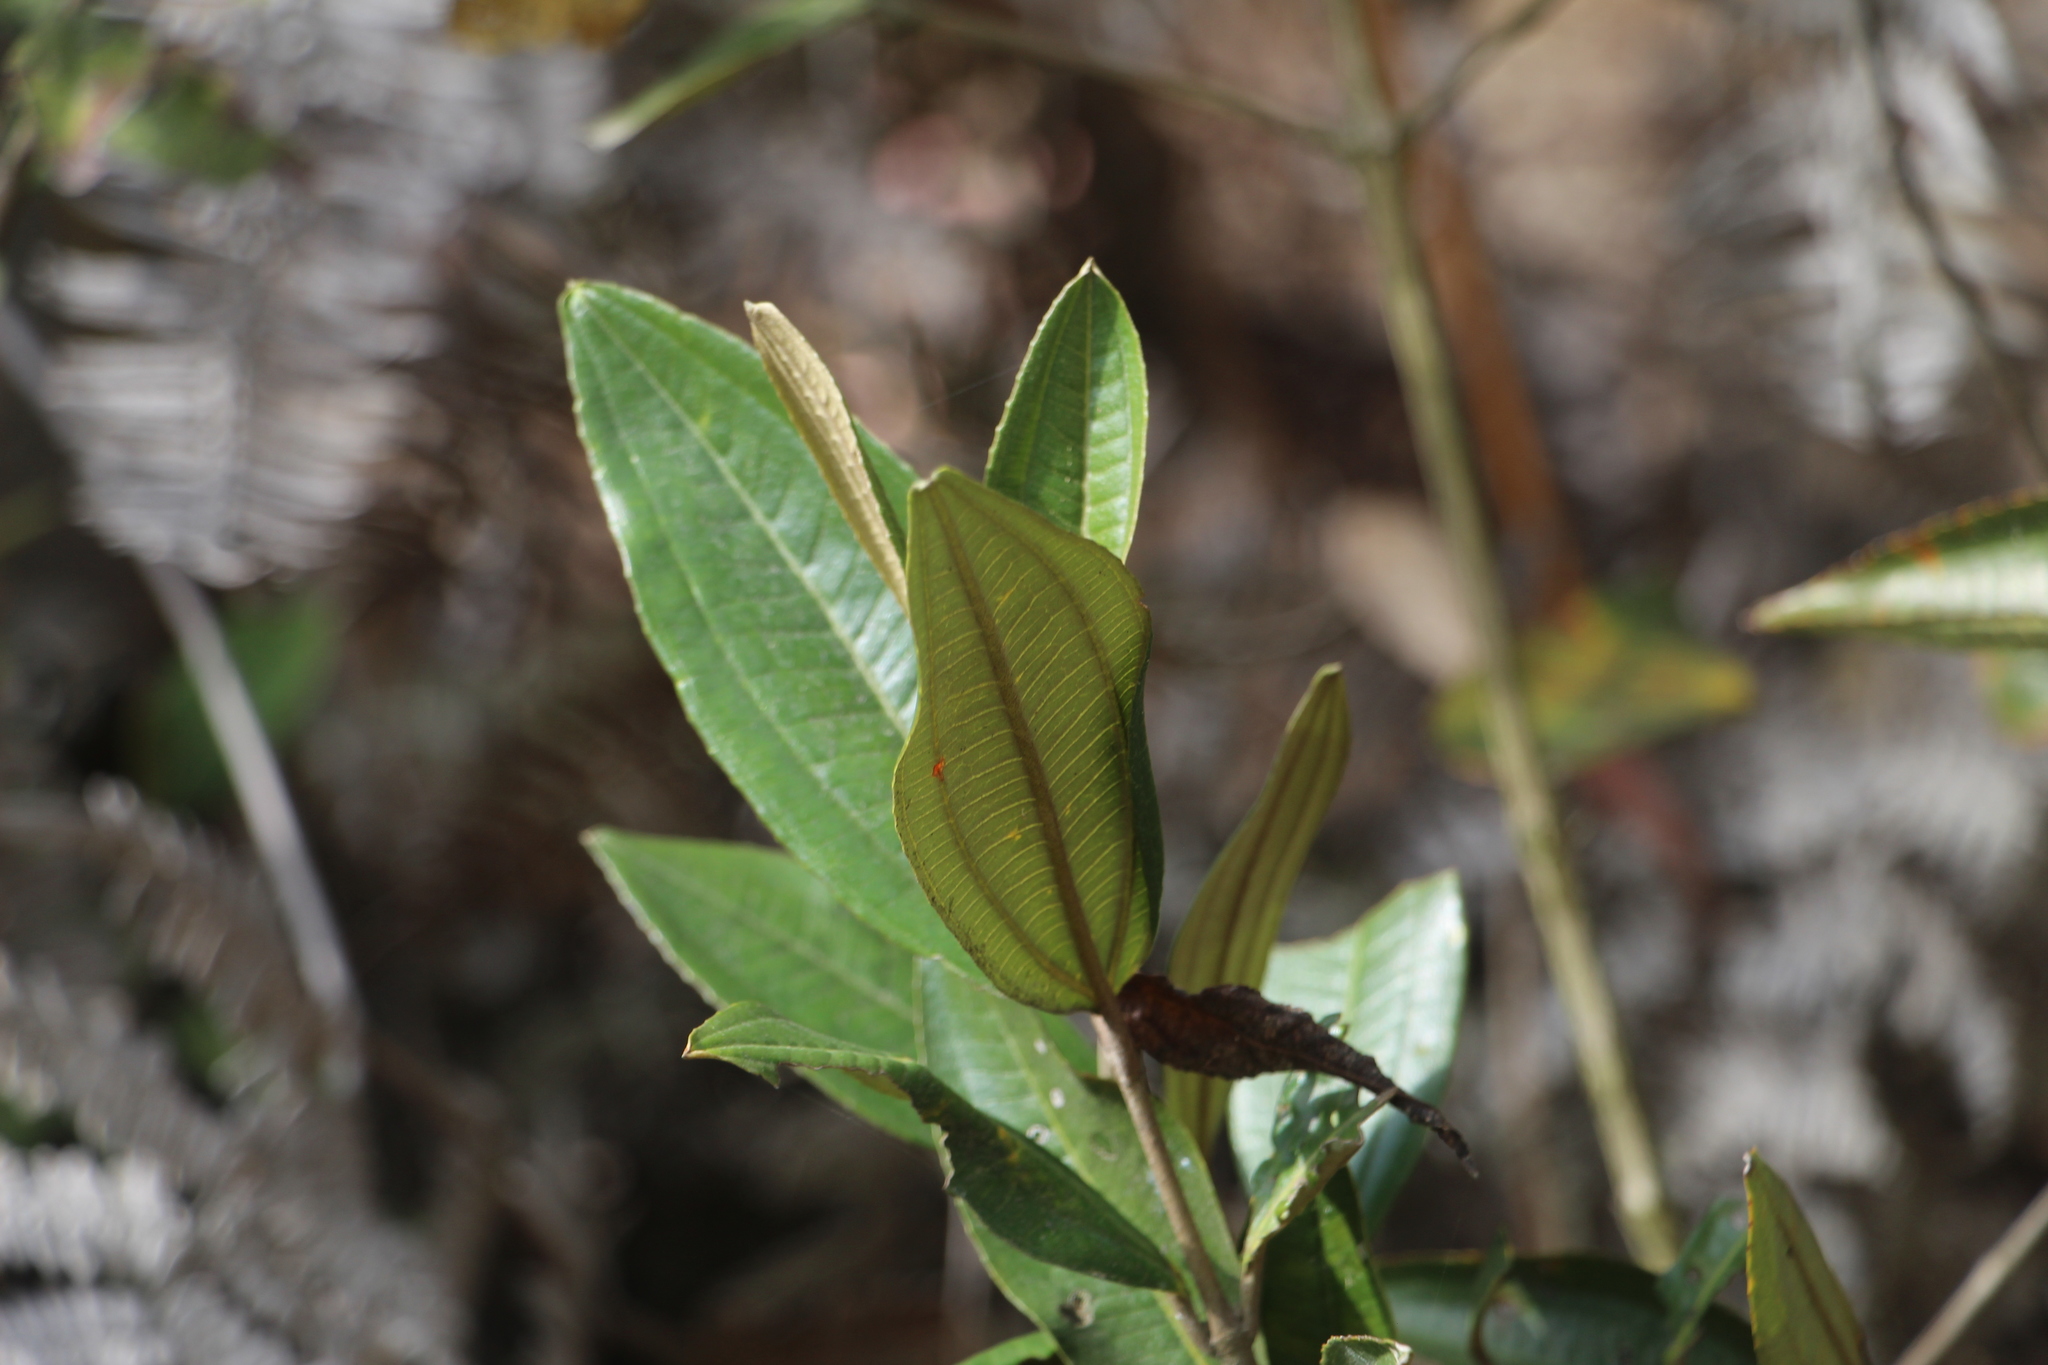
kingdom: Plantae
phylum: Tracheophyta
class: Magnoliopsida
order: Myrtales
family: Melastomataceae
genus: Miconia
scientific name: Miconia squamulosa
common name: Squamulose maya
